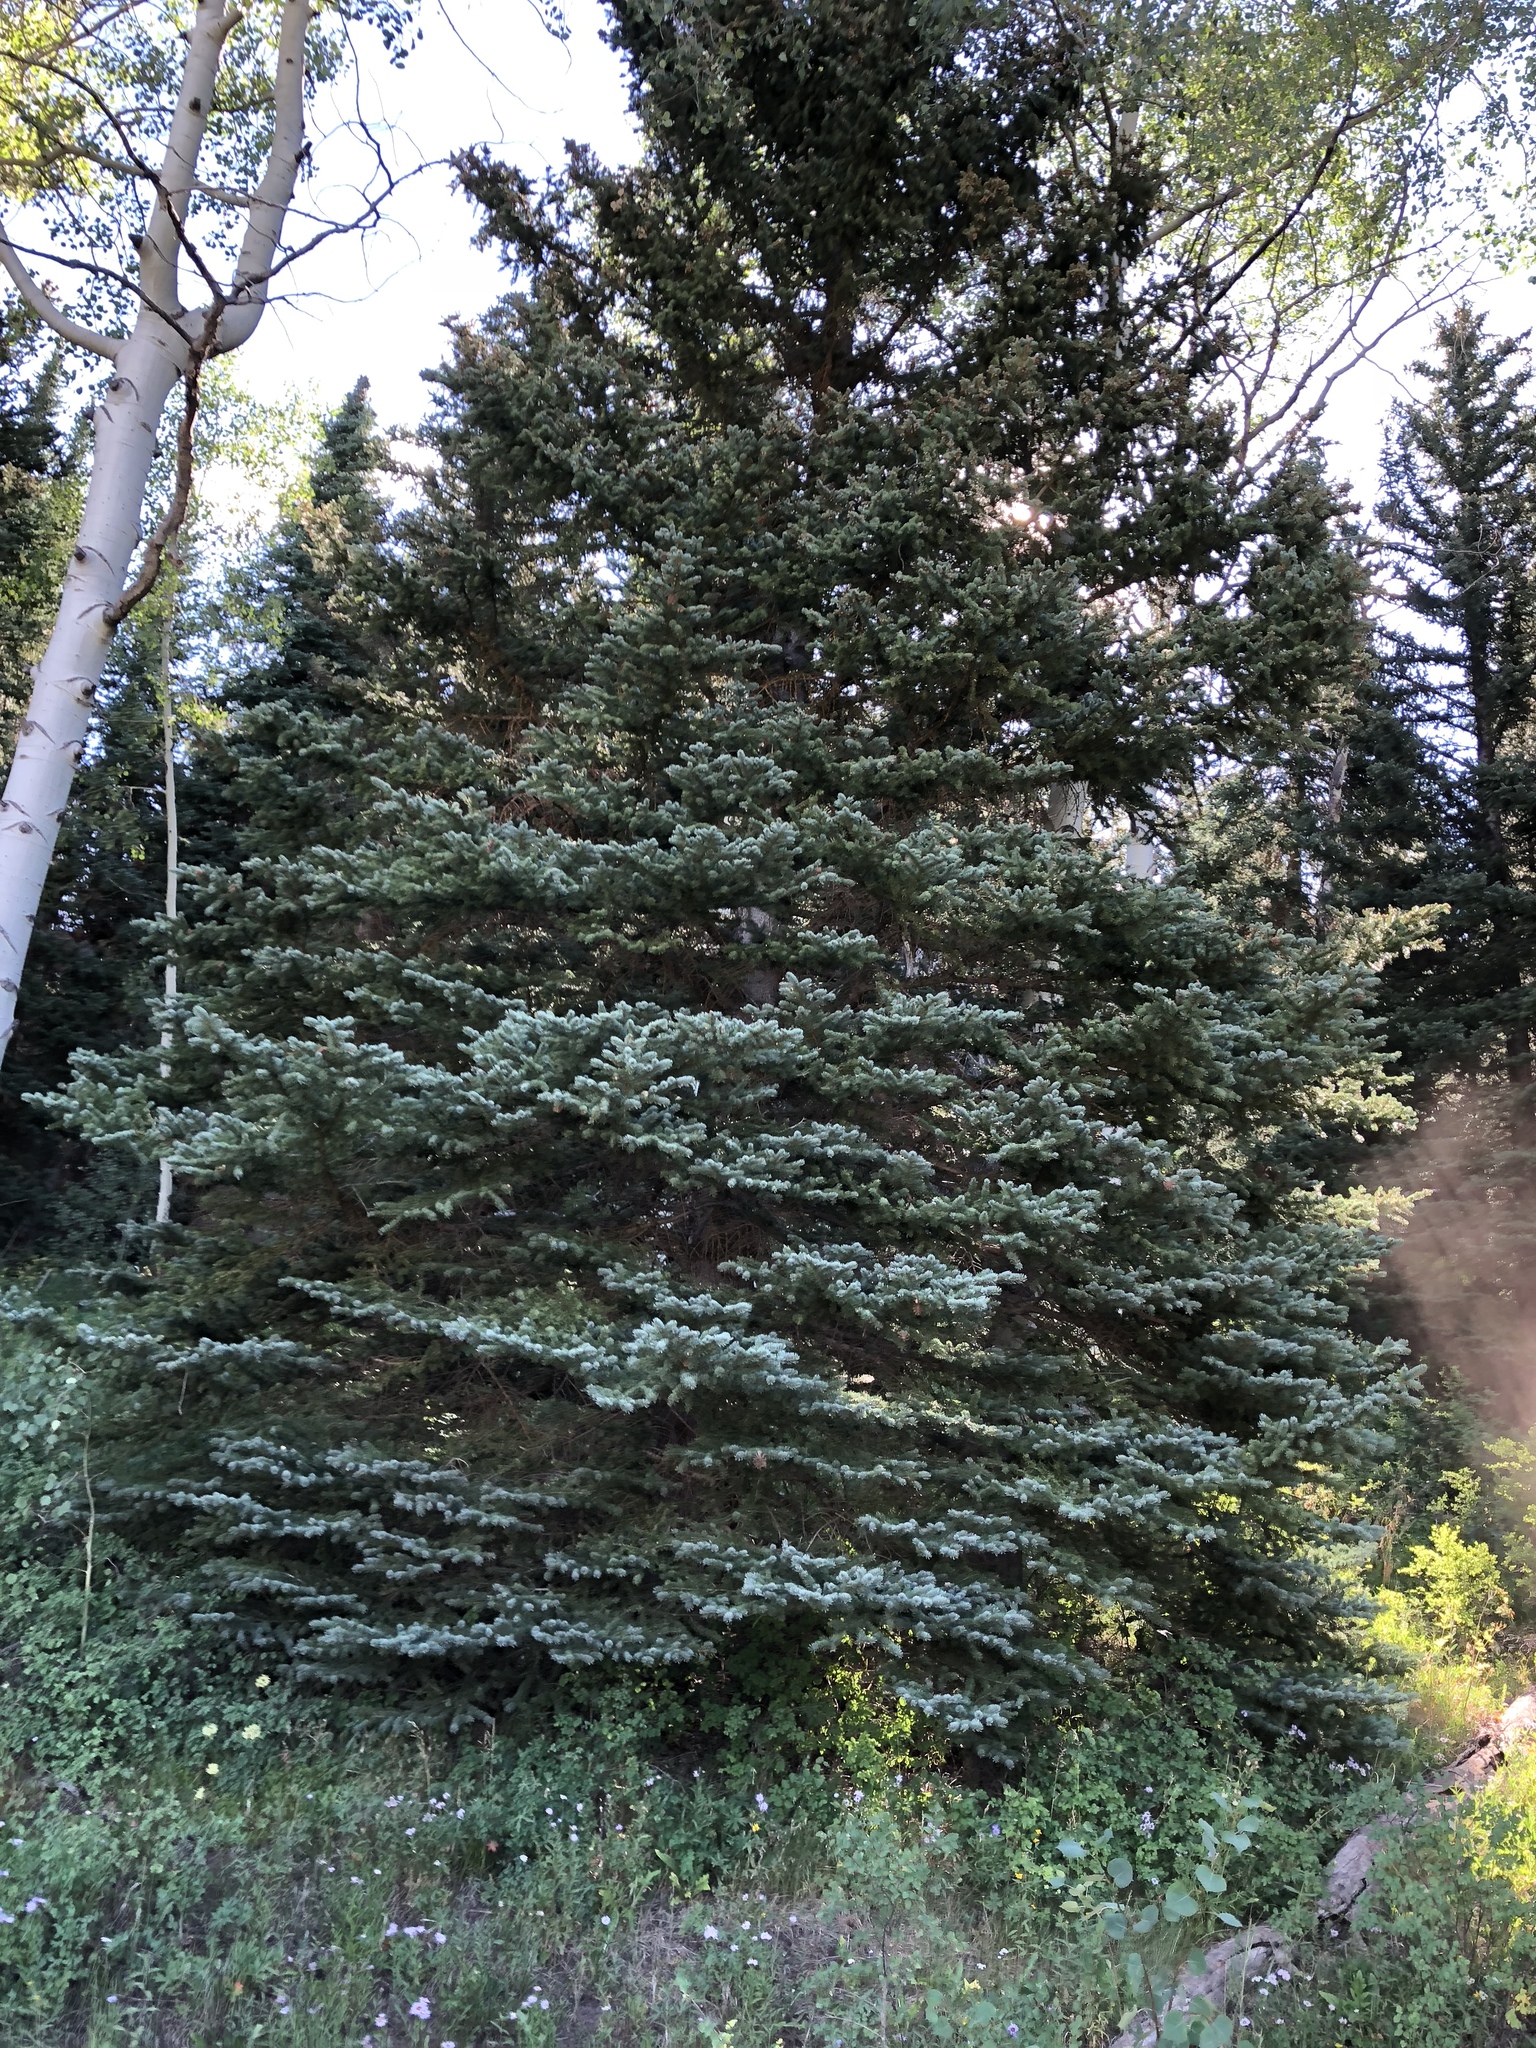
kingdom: Plantae
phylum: Tracheophyta
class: Pinopsida
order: Pinales
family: Pinaceae
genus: Picea
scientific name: Picea pungens
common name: Colorado spruce
